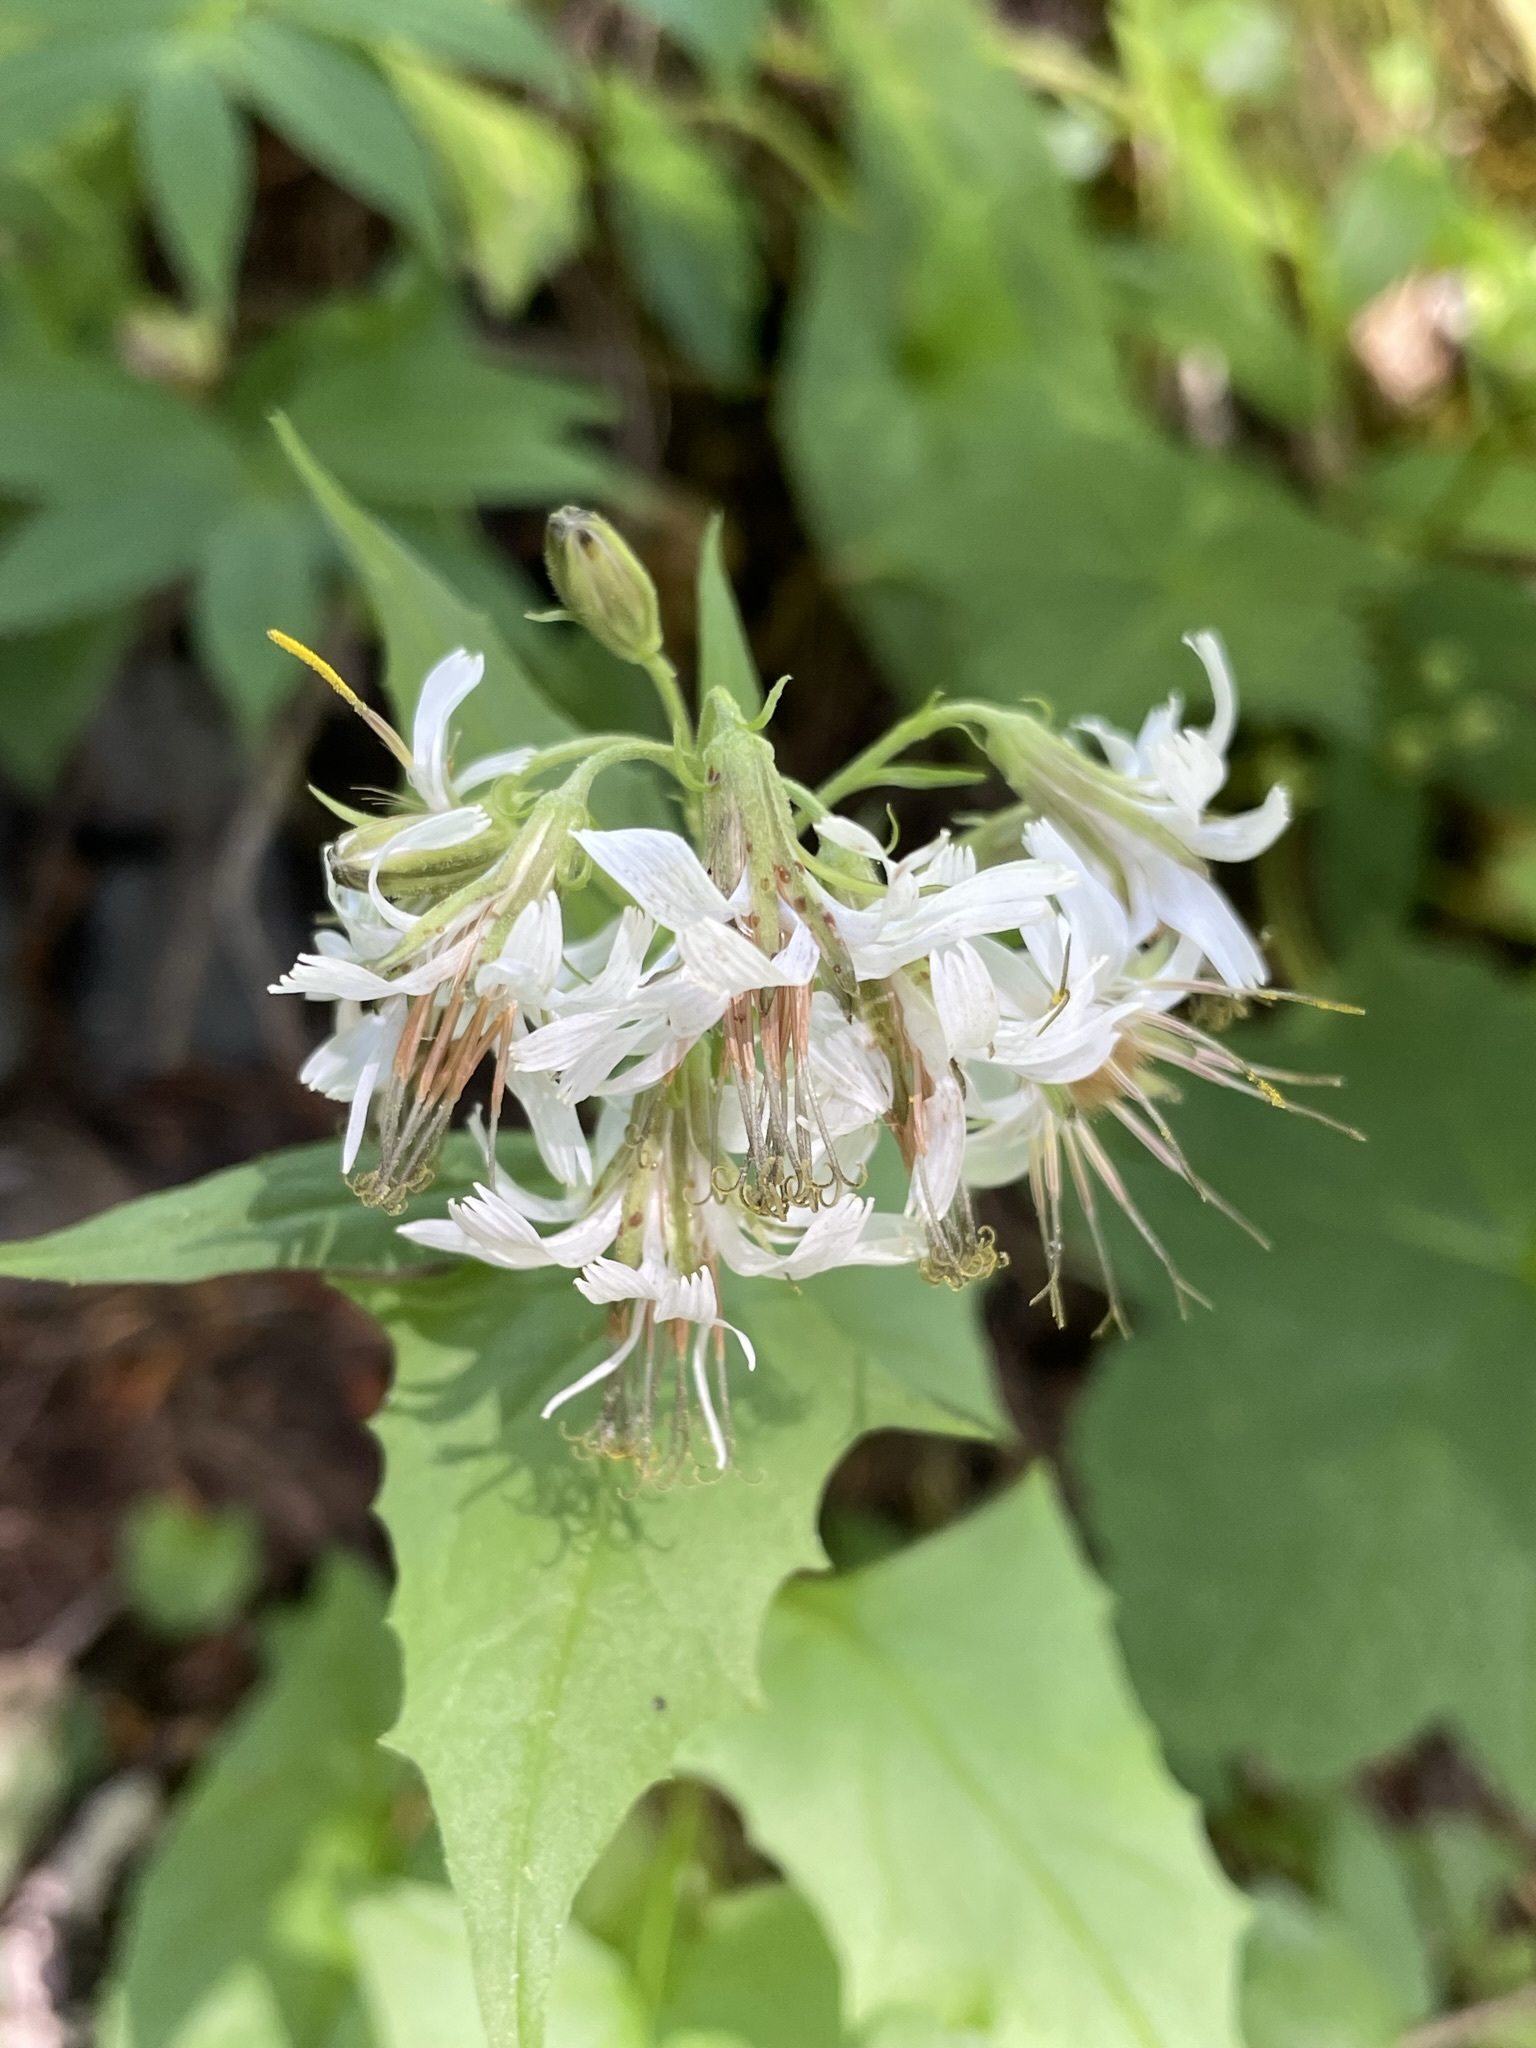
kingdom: Plantae
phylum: Tracheophyta
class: Magnoliopsida
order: Asterales
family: Asteraceae
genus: Nabalus
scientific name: Nabalus hastatus
